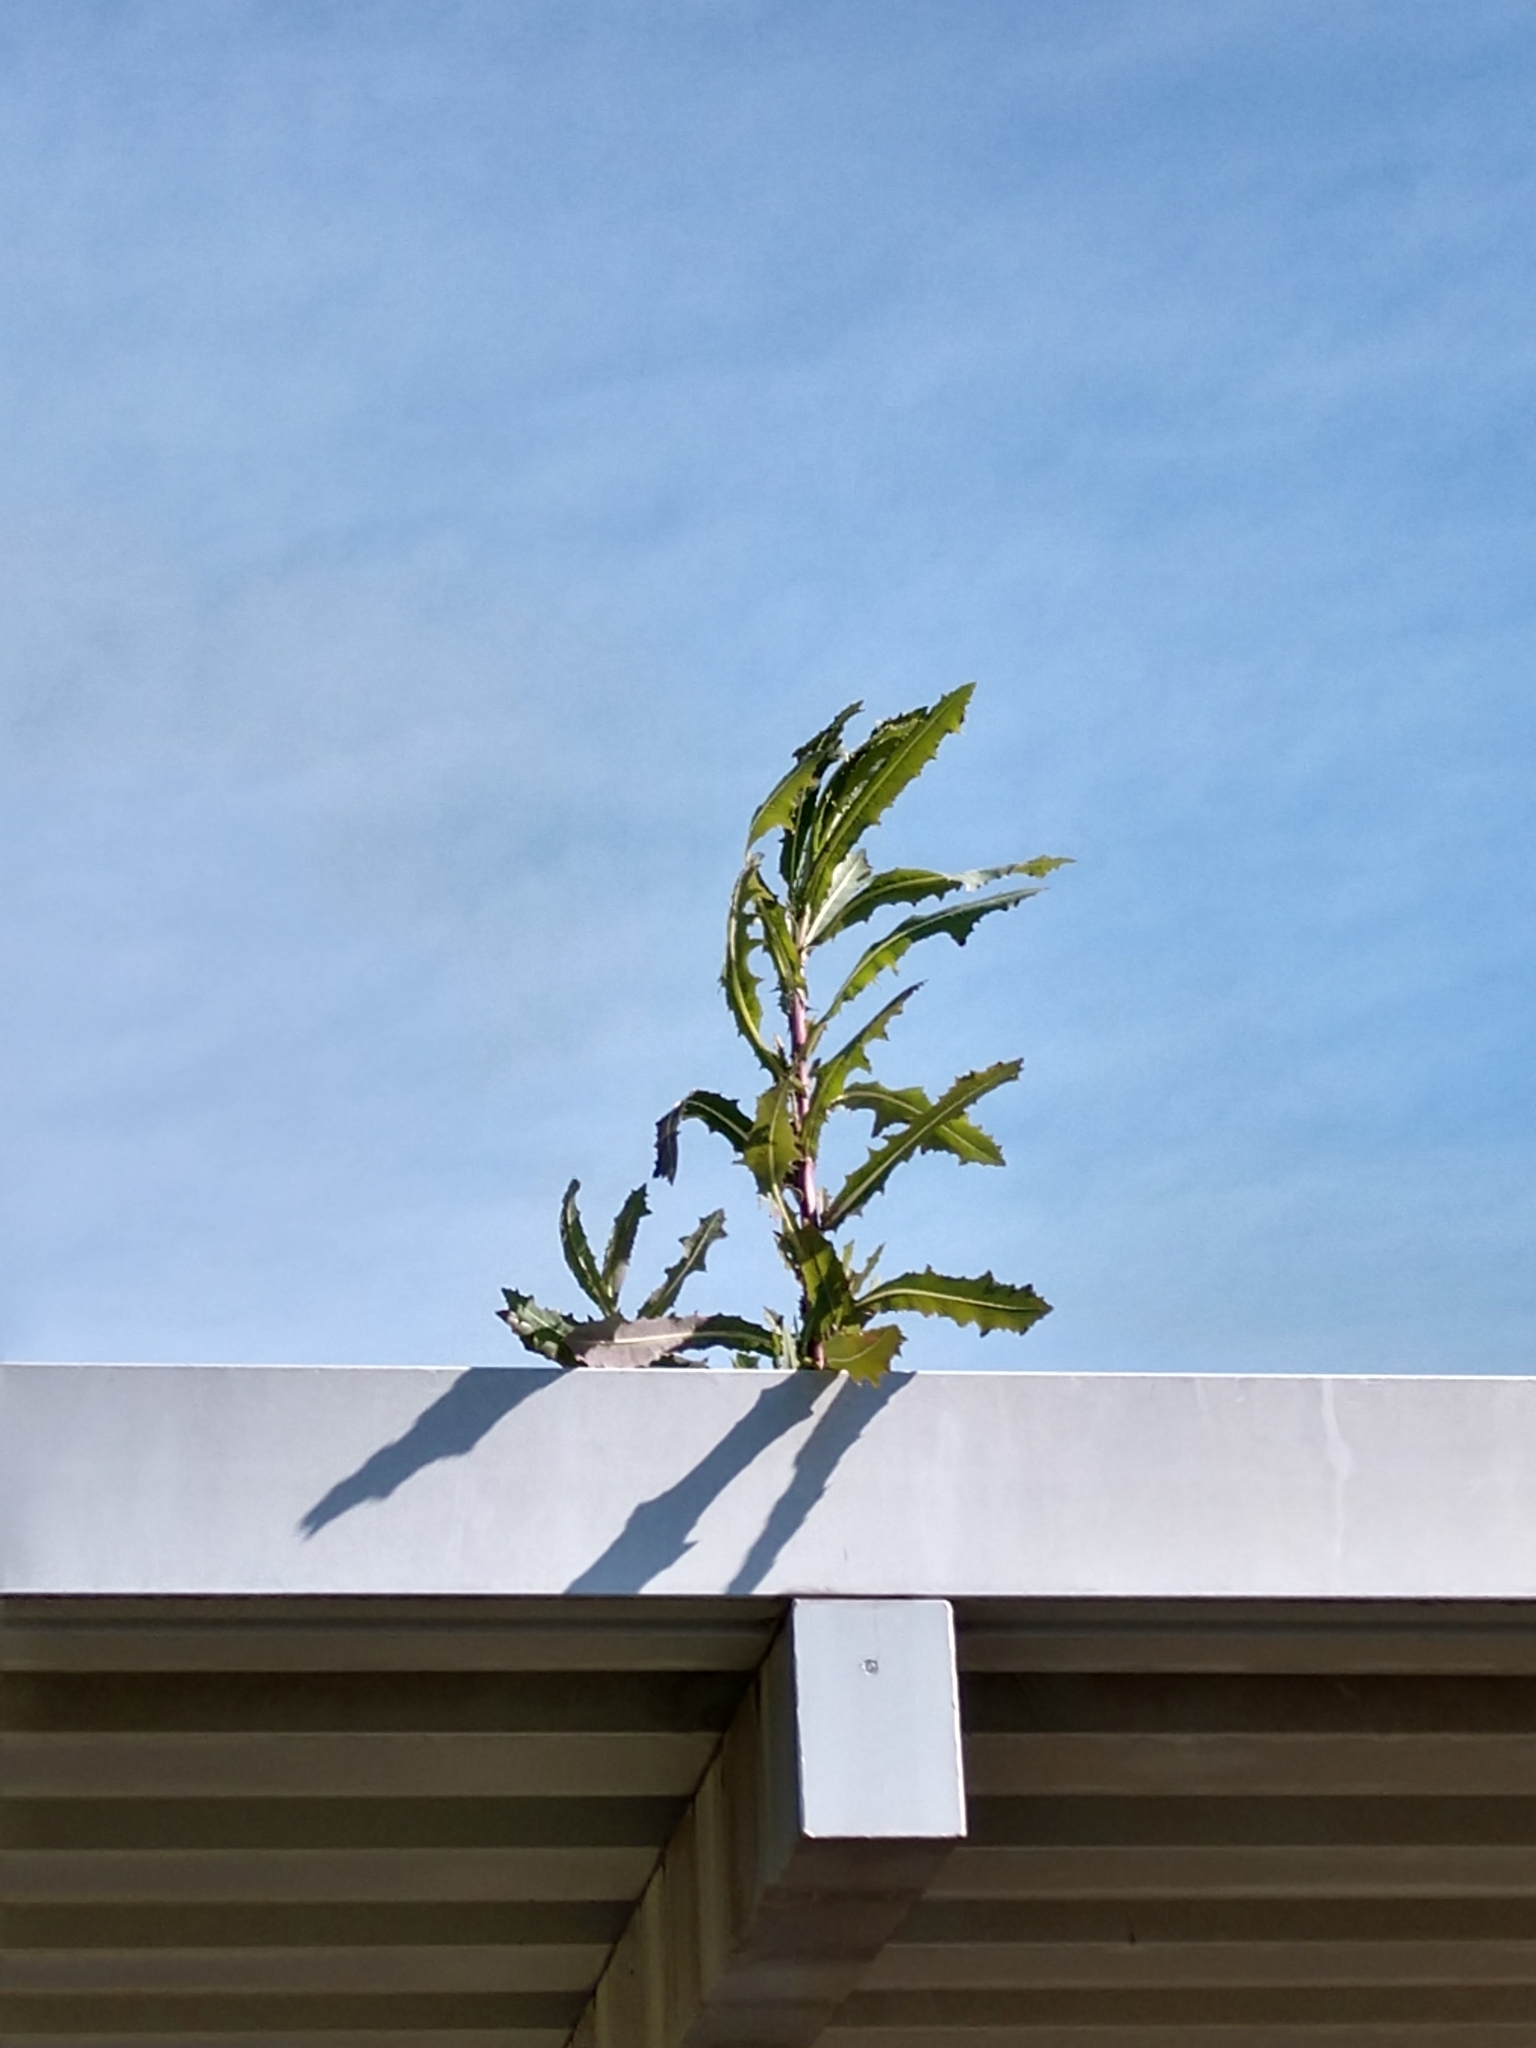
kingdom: Plantae
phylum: Tracheophyta
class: Magnoliopsida
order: Asterales
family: Asteraceae
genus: Lactuca
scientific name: Lactuca serriola
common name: Prickly lettuce
